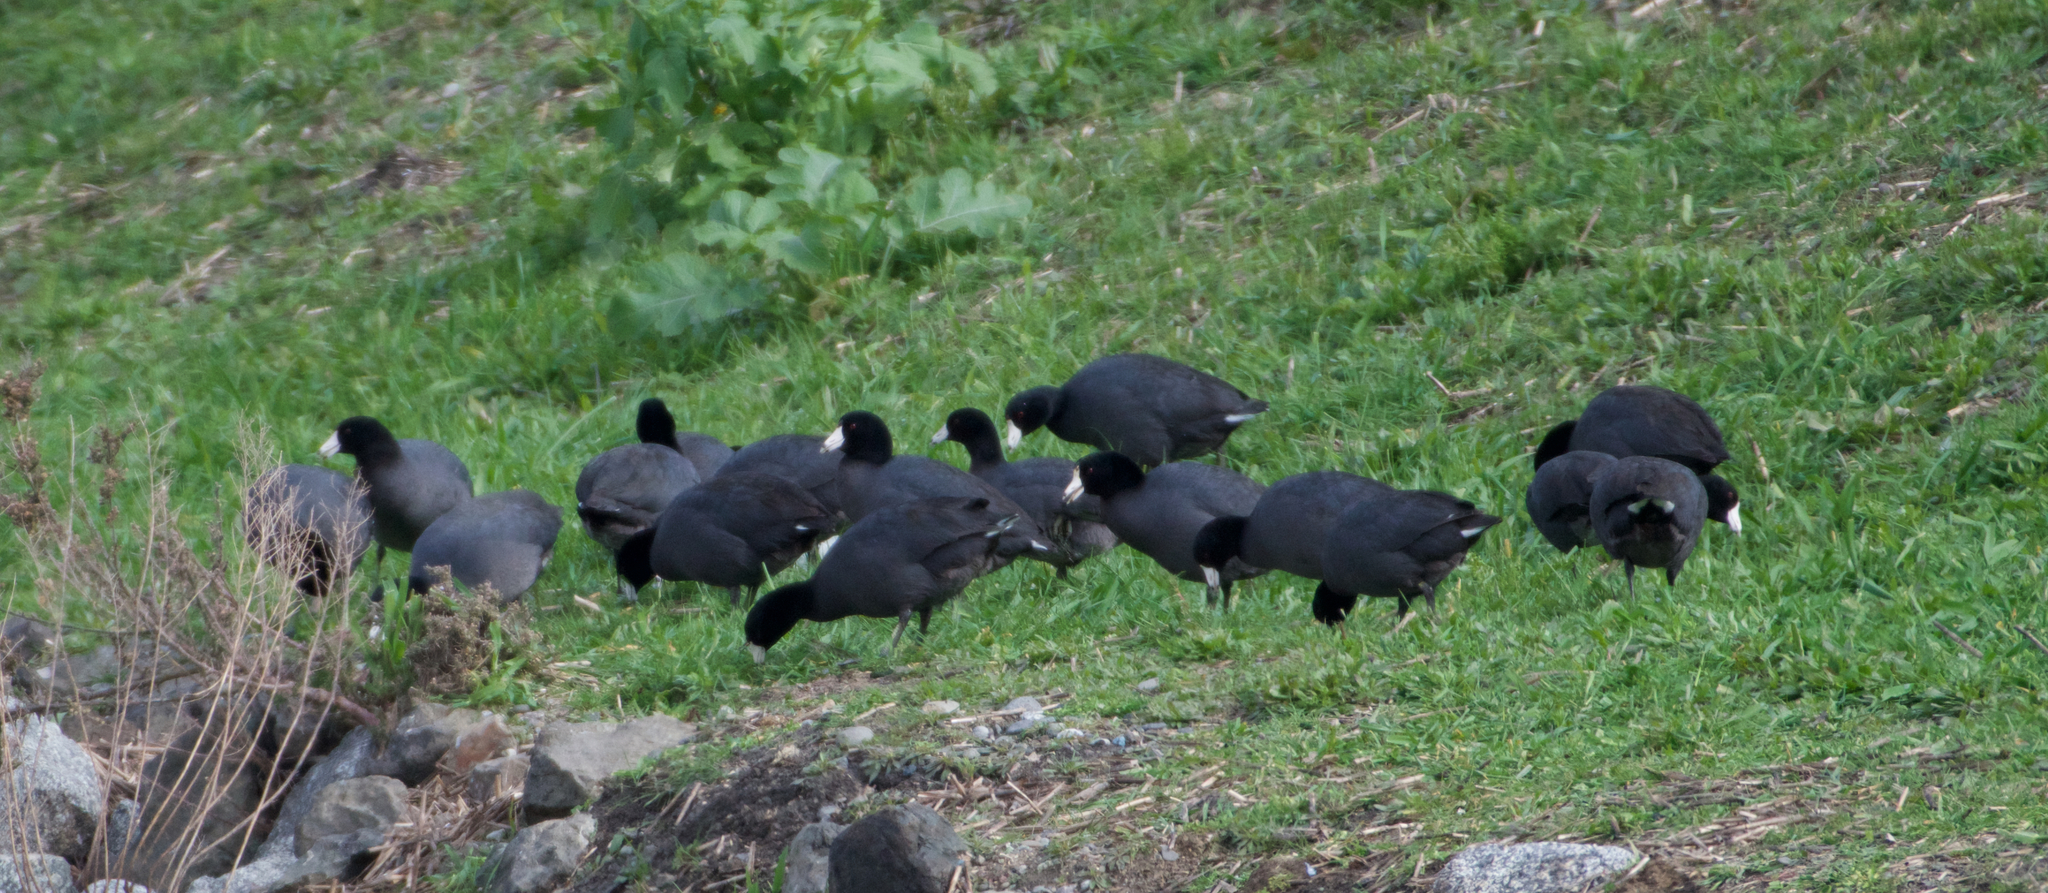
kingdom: Animalia
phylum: Chordata
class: Aves
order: Gruiformes
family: Rallidae
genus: Fulica
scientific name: Fulica americana
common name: American coot
